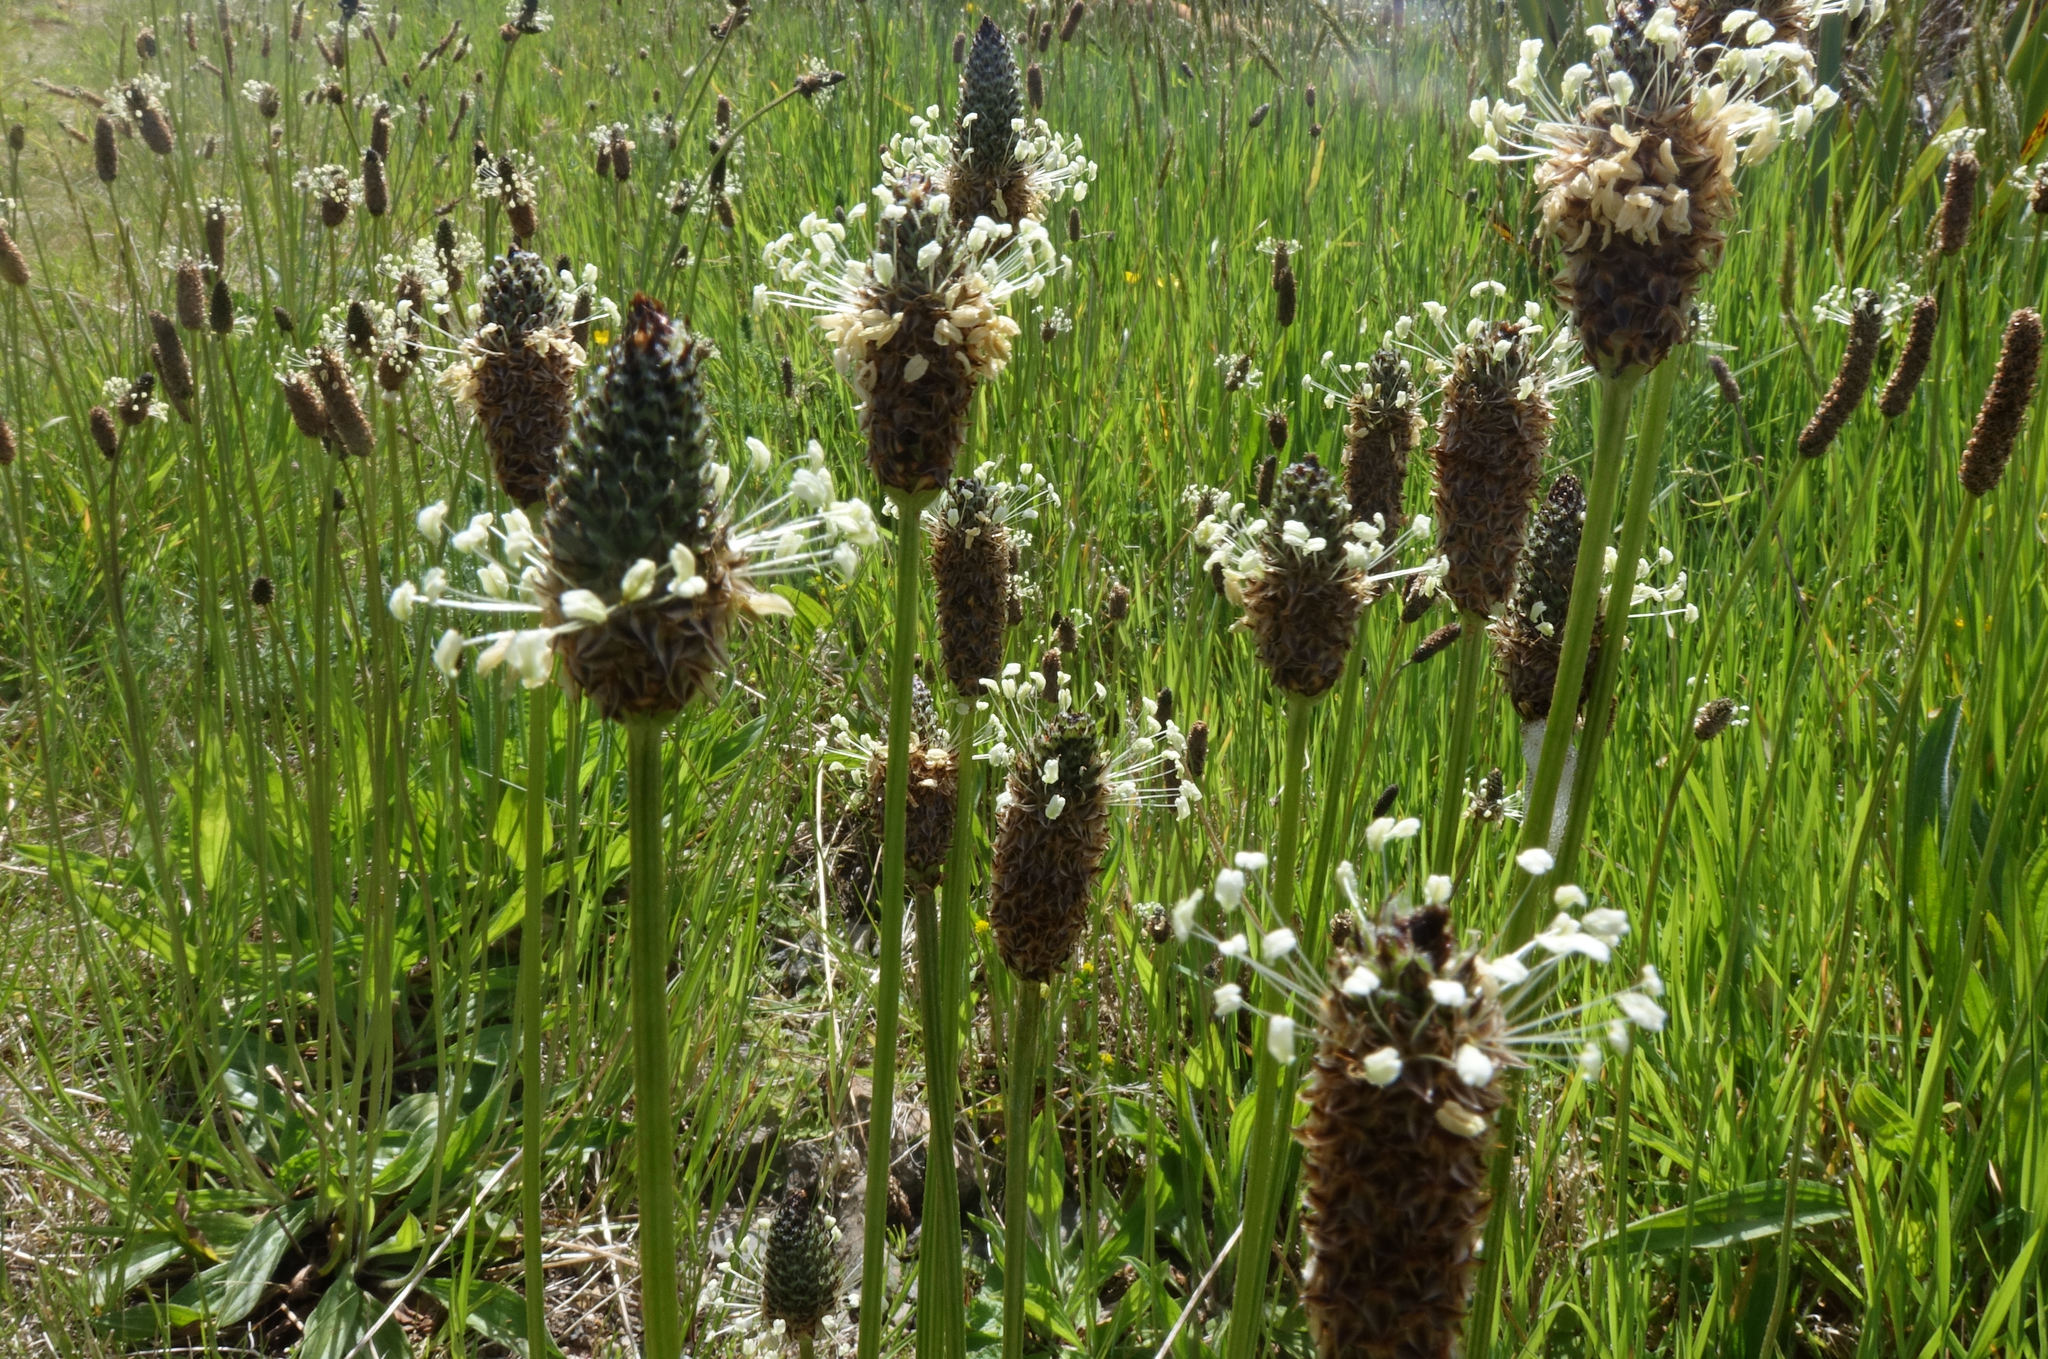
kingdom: Plantae
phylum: Tracheophyta
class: Magnoliopsida
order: Lamiales
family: Plantaginaceae
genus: Plantago
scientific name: Plantago lanceolata
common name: Ribwort plantain
